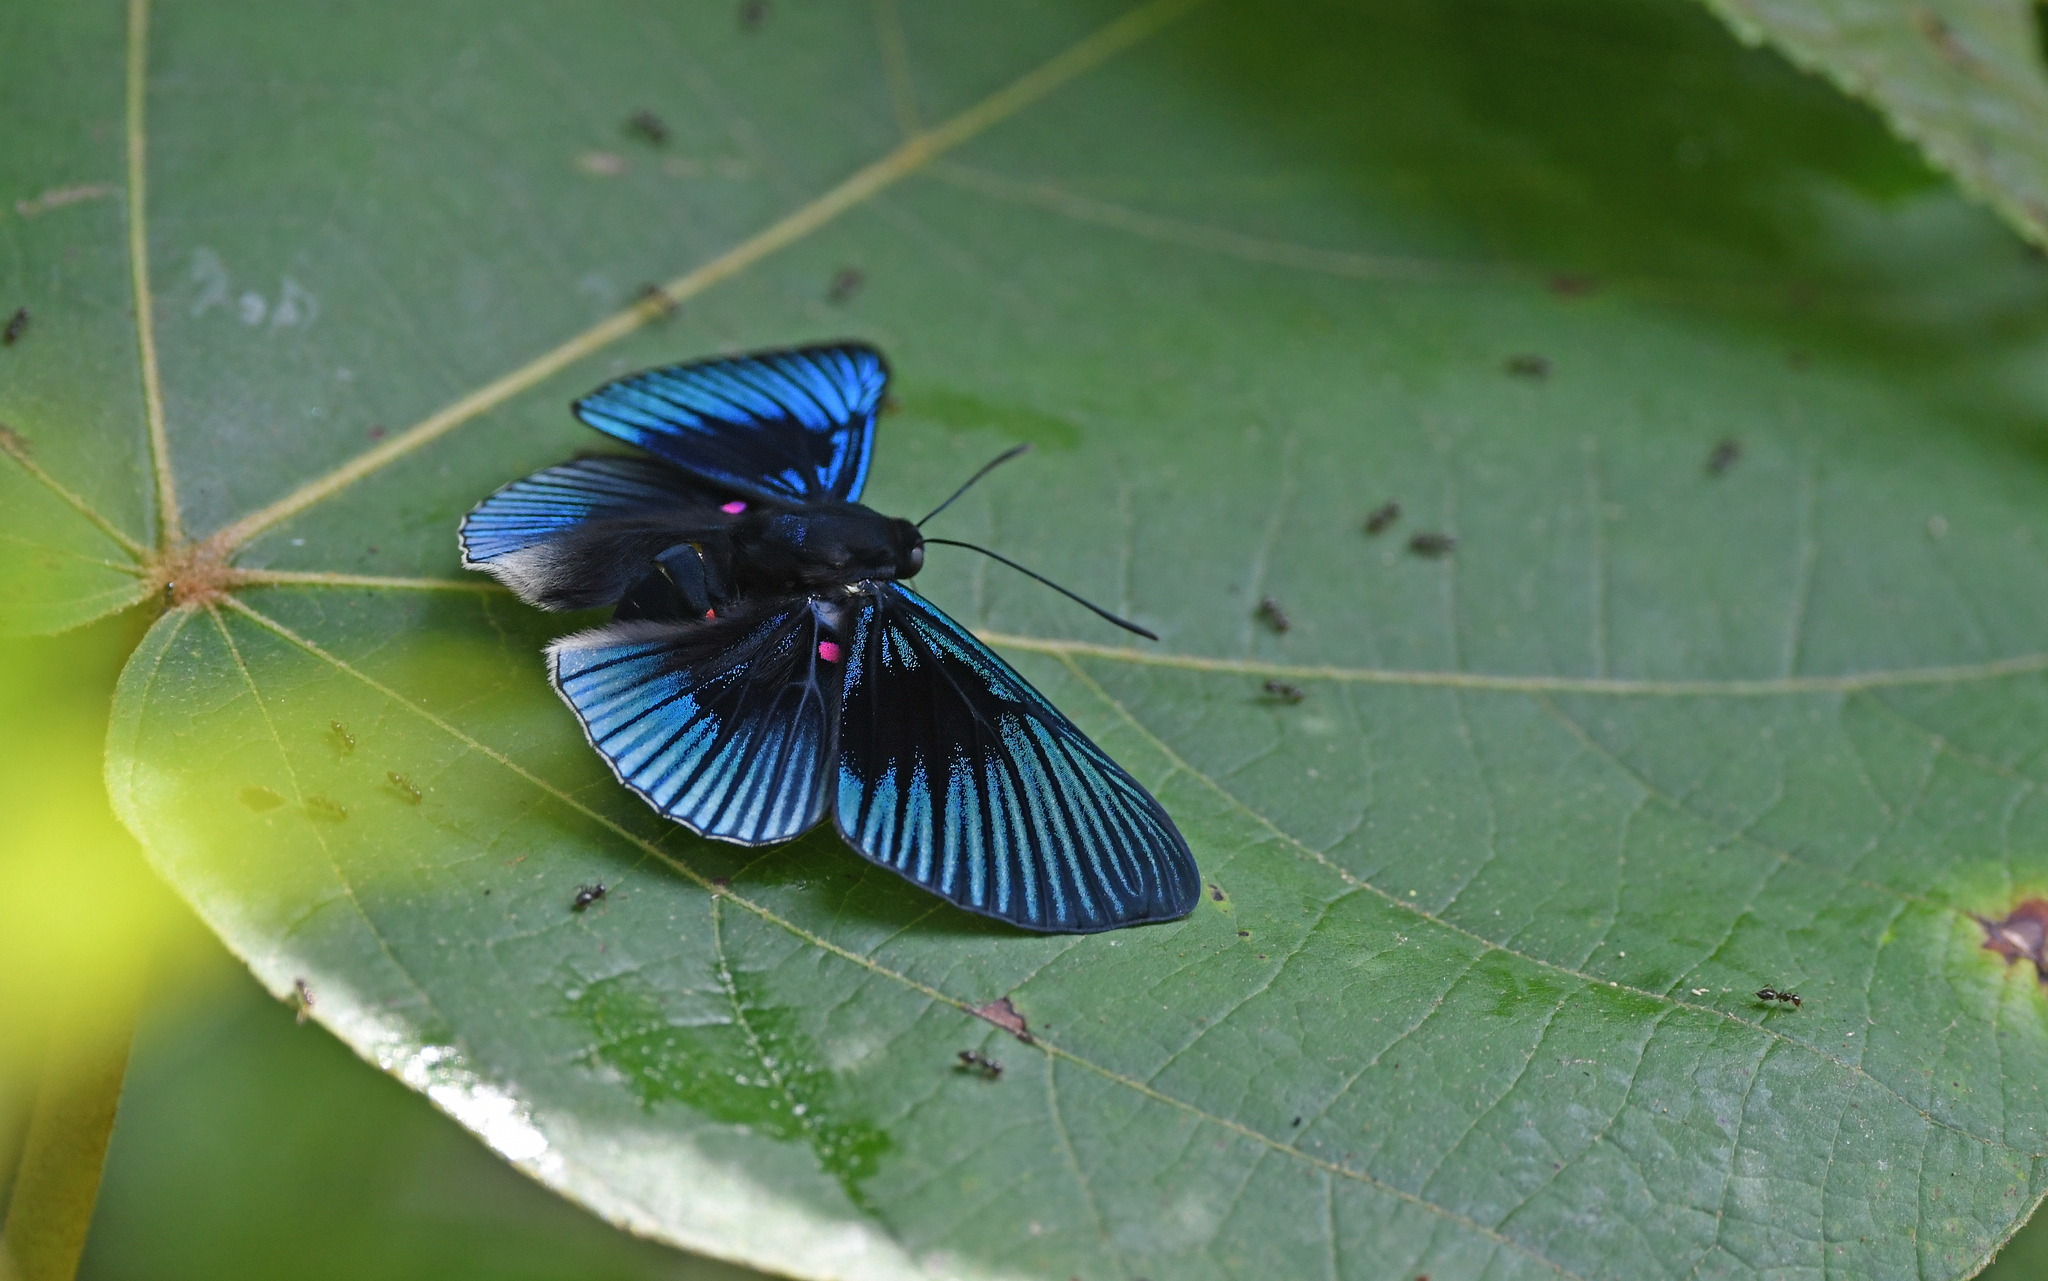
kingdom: Animalia
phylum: Arthropoda
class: Insecta
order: Lepidoptera
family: Riodinidae
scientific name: Riodinidae
